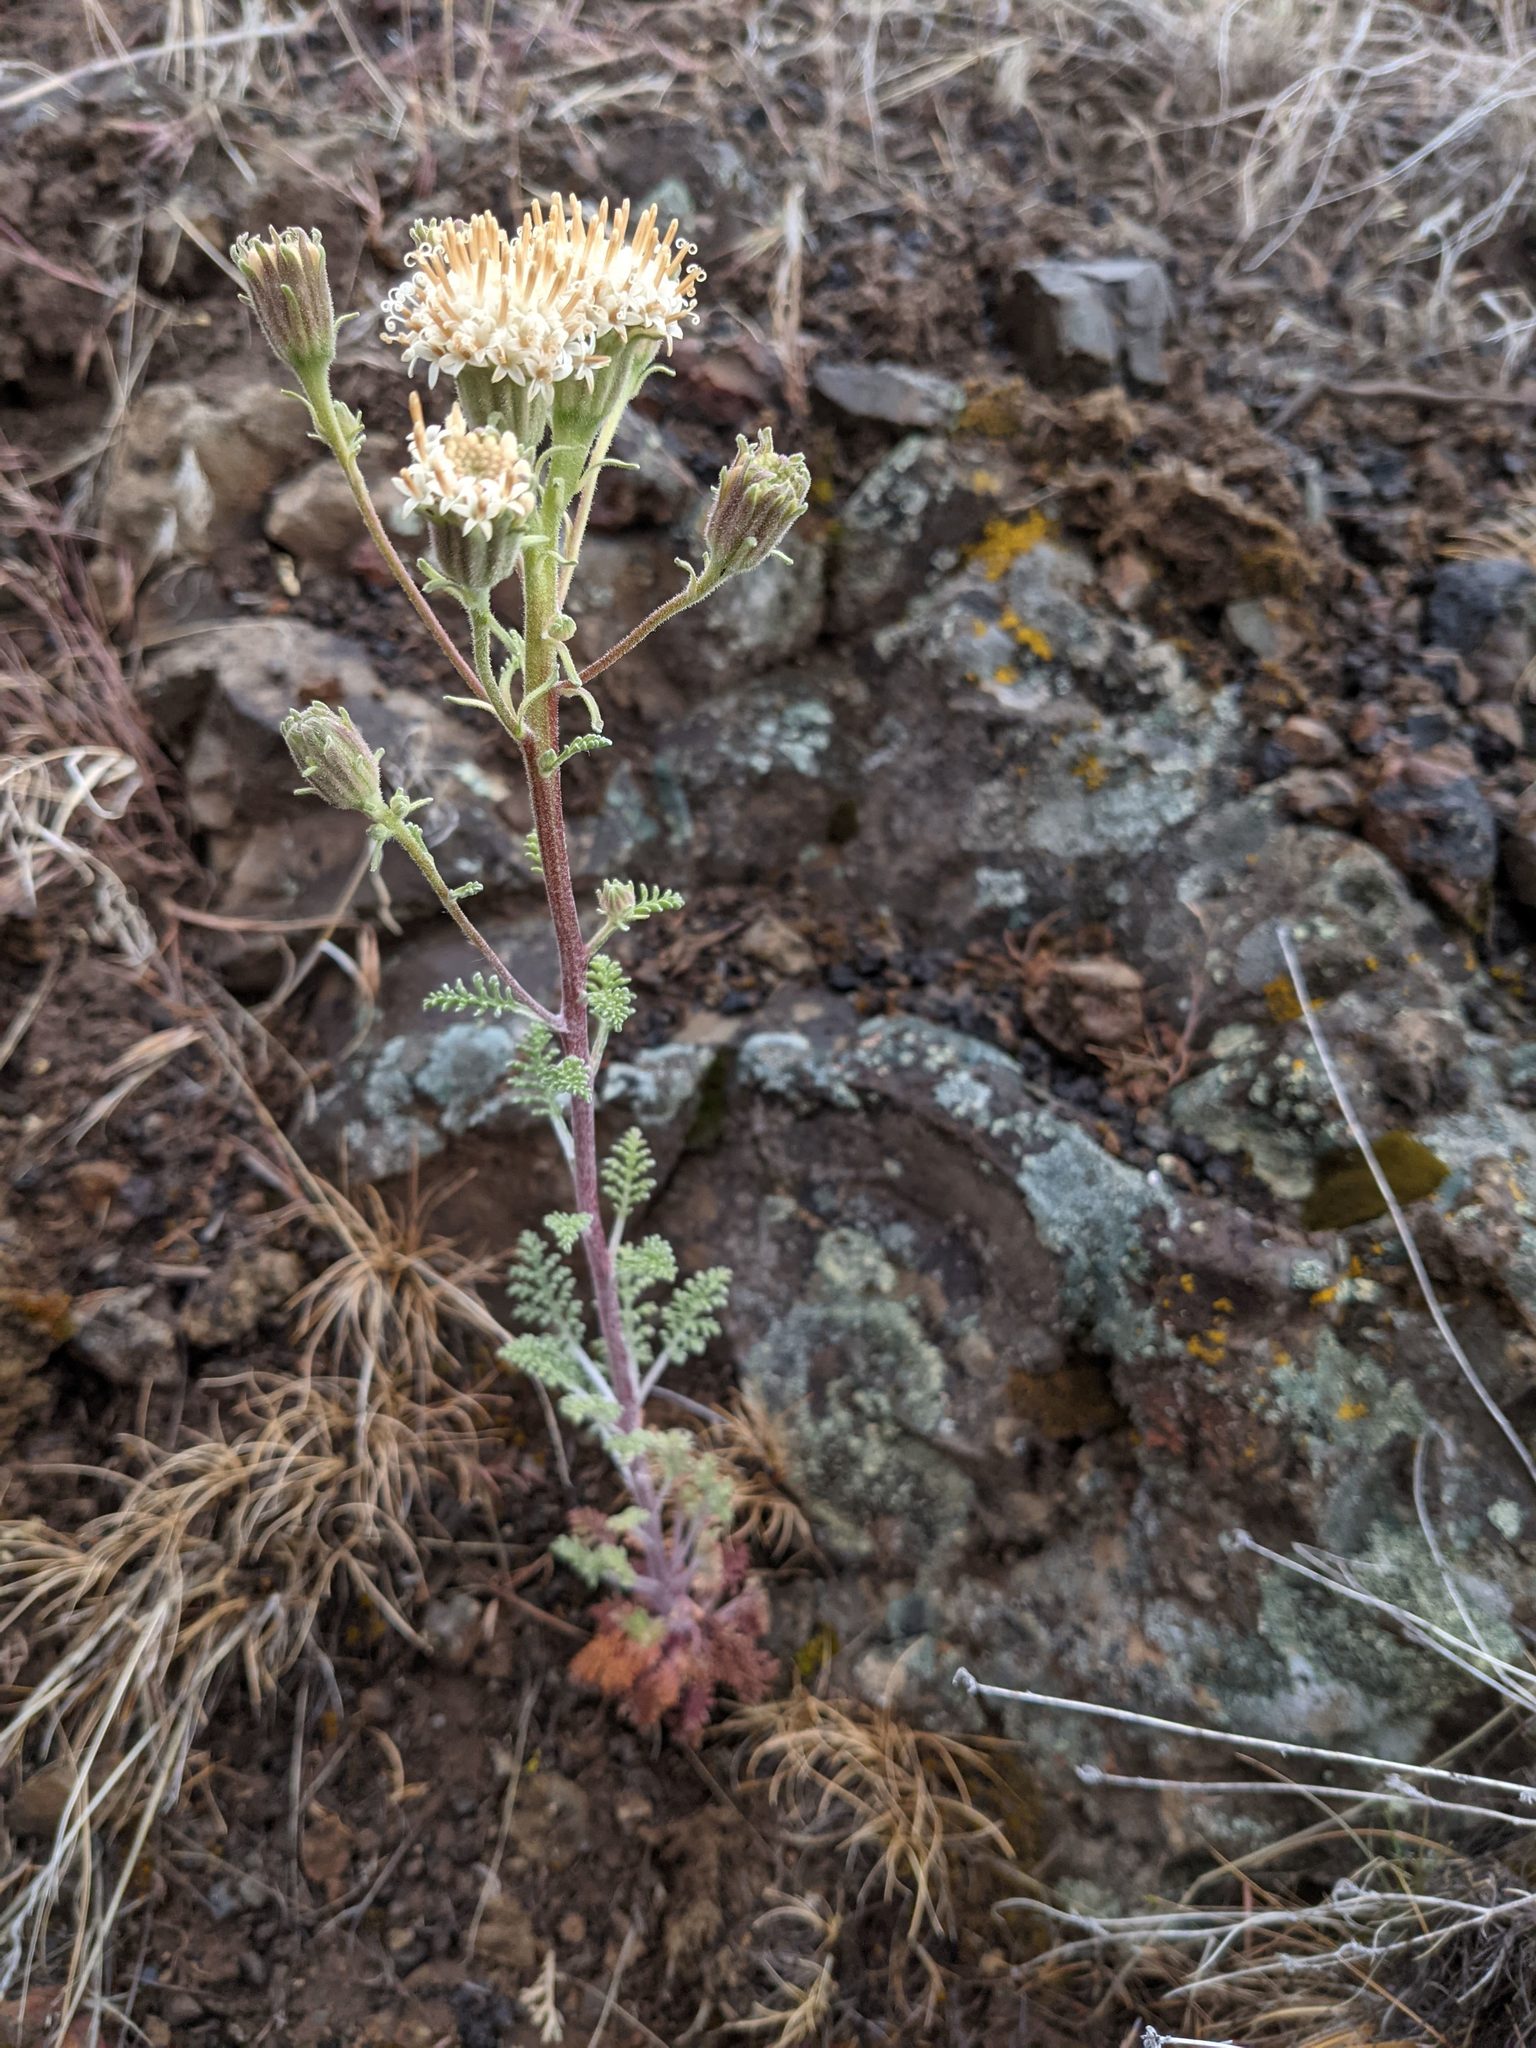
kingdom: Plantae
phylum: Tracheophyta
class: Magnoliopsida
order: Asterales
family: Asteraceae
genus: Chaenactis
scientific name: Chaenactis douglasii
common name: Hoary pincushion
